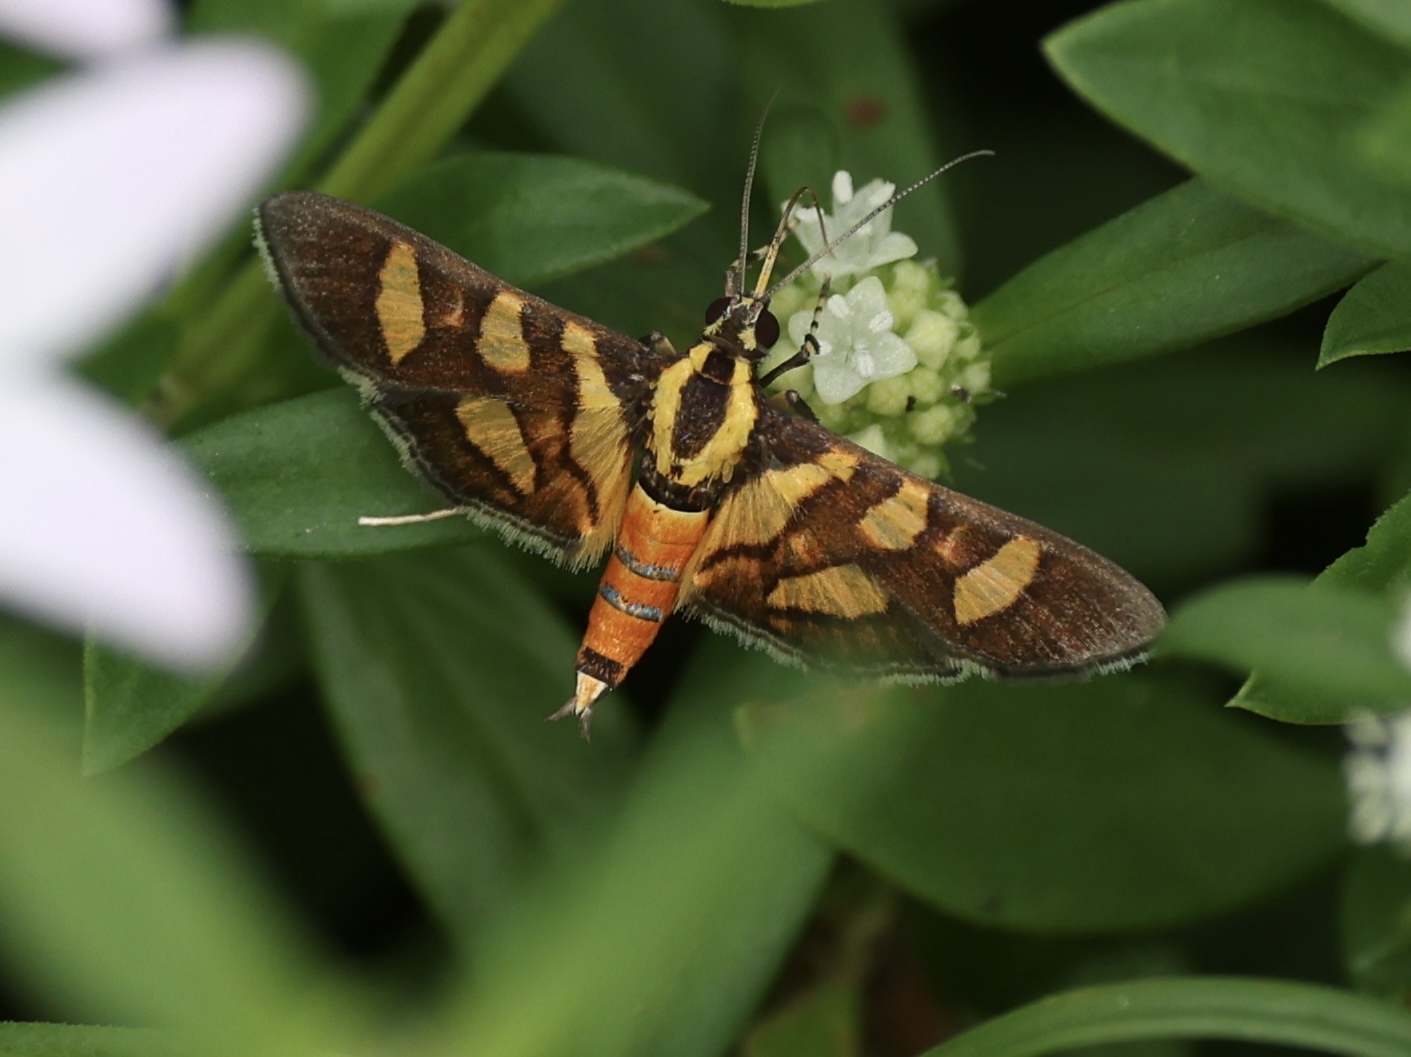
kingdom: Animalia
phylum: Arthropoda
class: Insecta
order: Lepidoptera
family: Crambidae
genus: Syngamia
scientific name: Syngamia florella
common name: Orange-spotted flower moth
